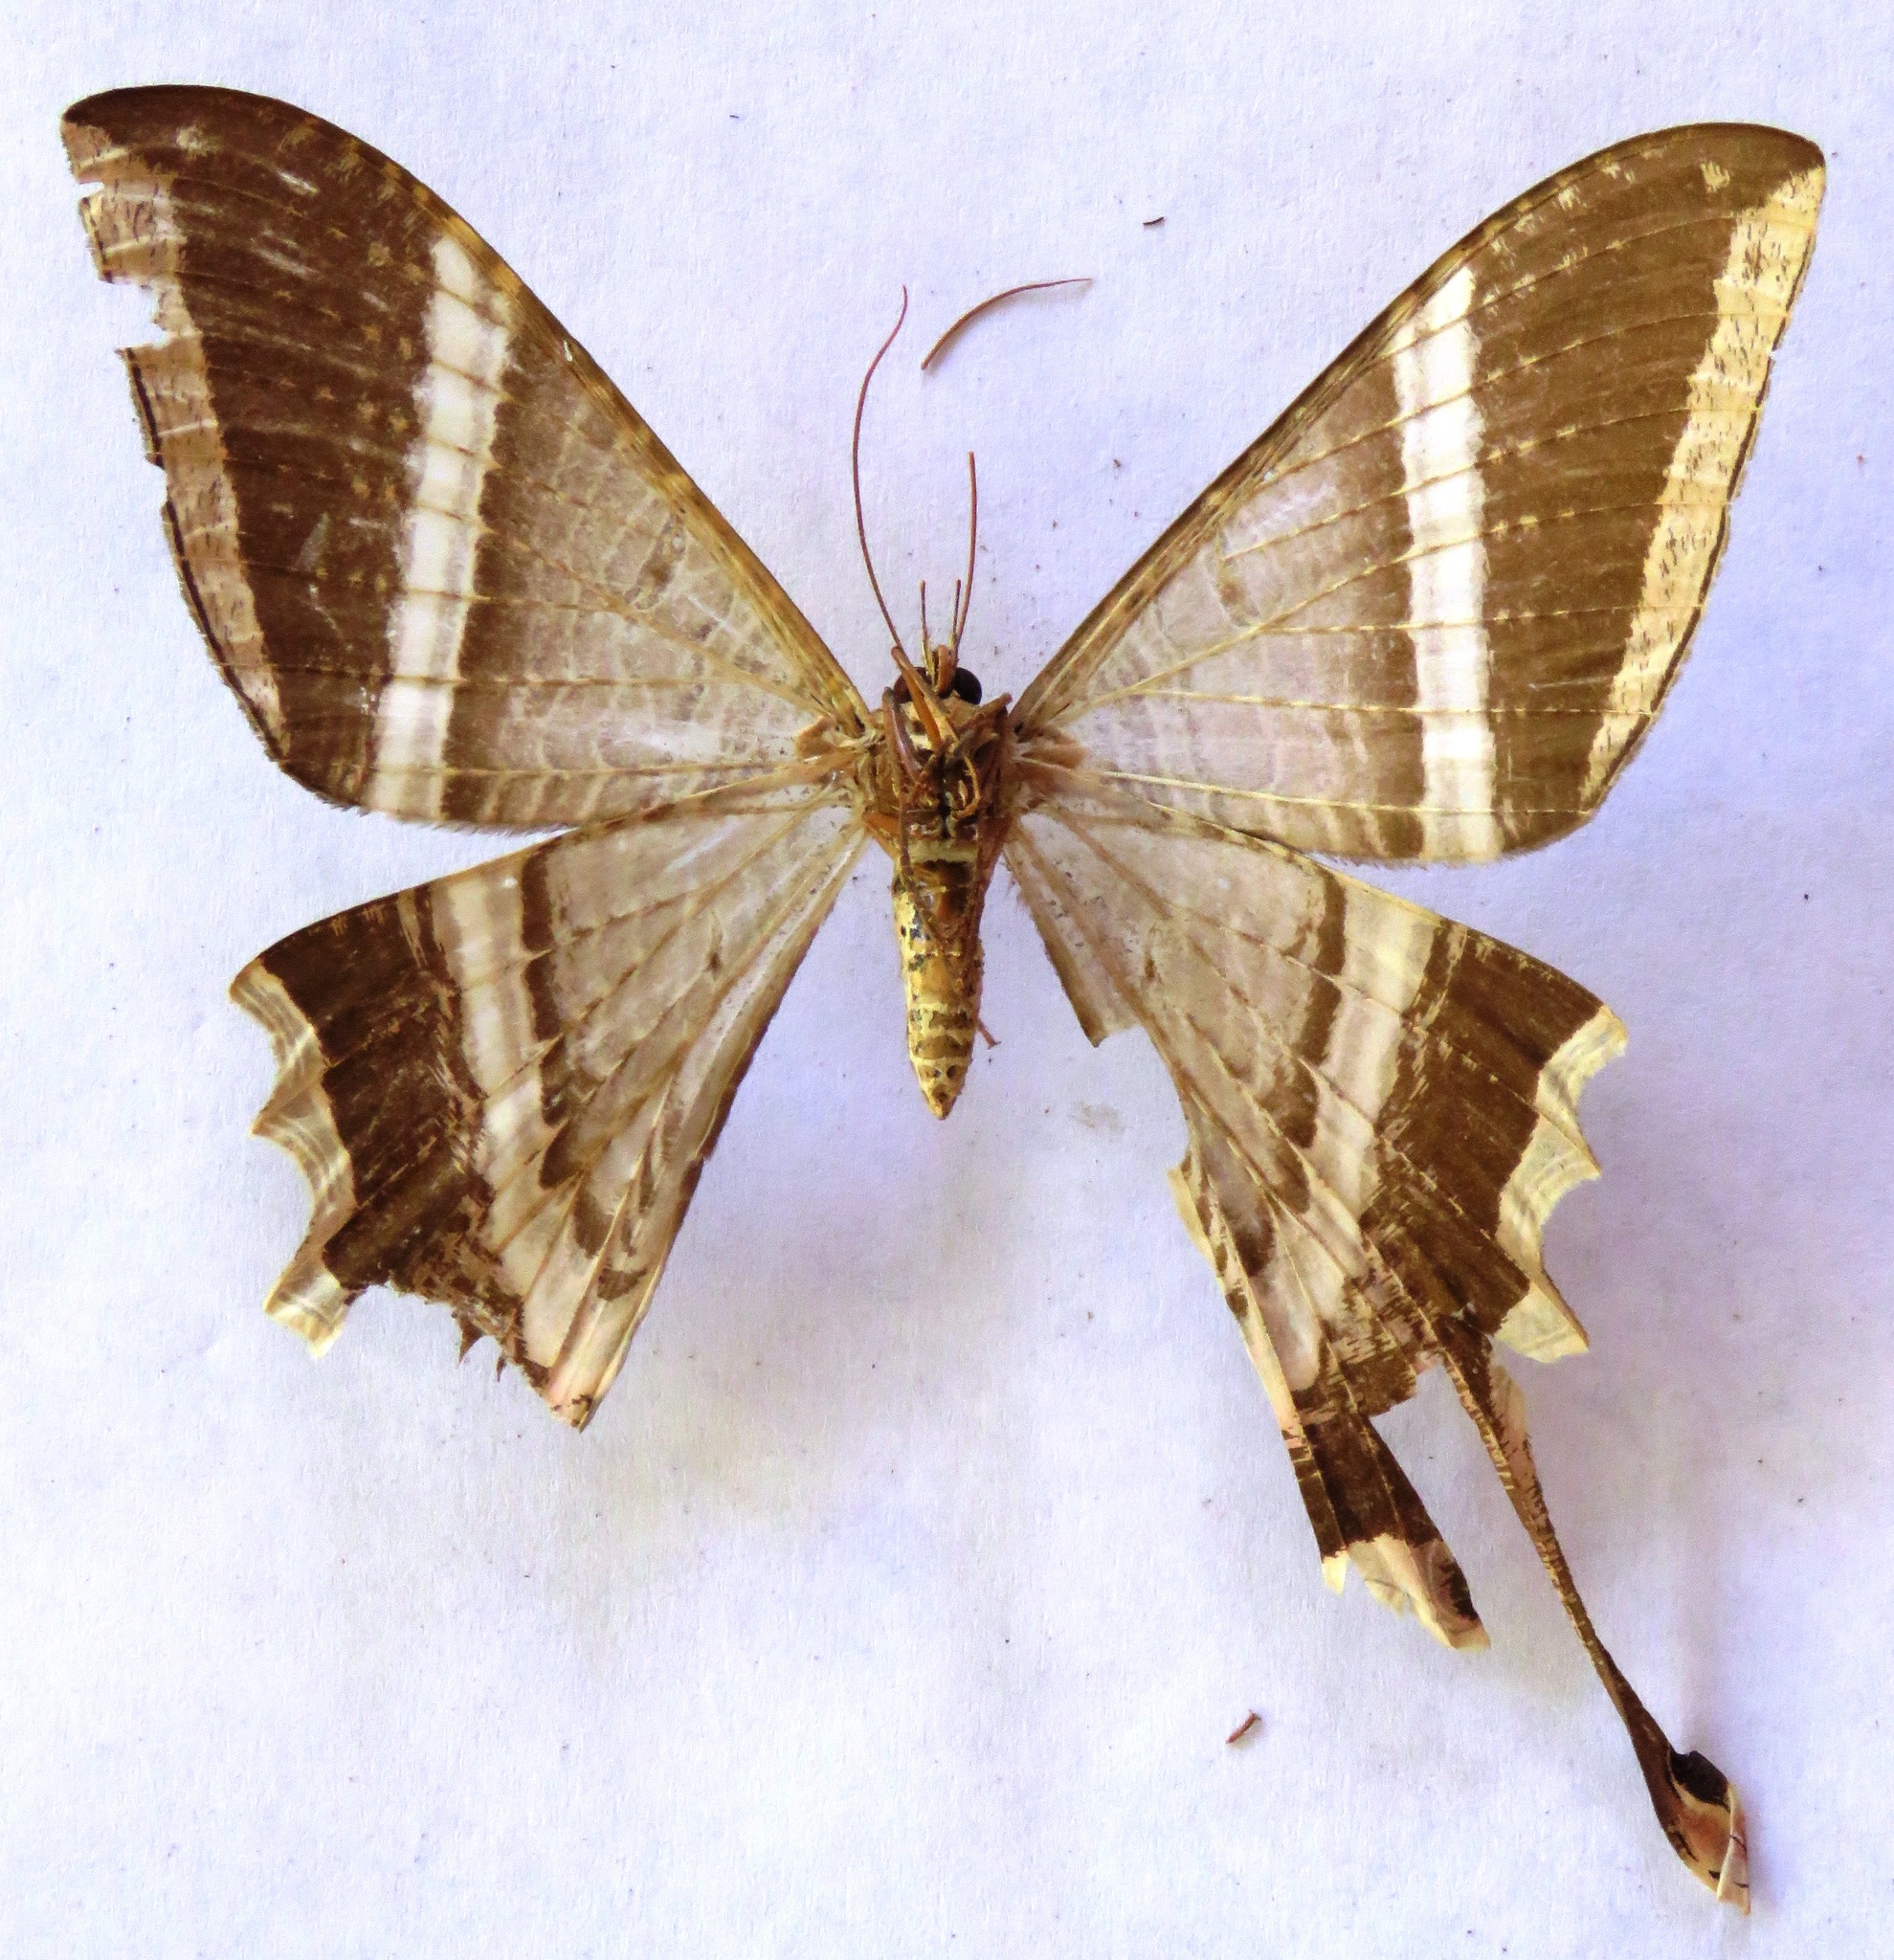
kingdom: Animalia
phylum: Arthropoda
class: Insecta
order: Lepidoptera
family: Sematuridae
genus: Nothus
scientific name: Nothus lunus
